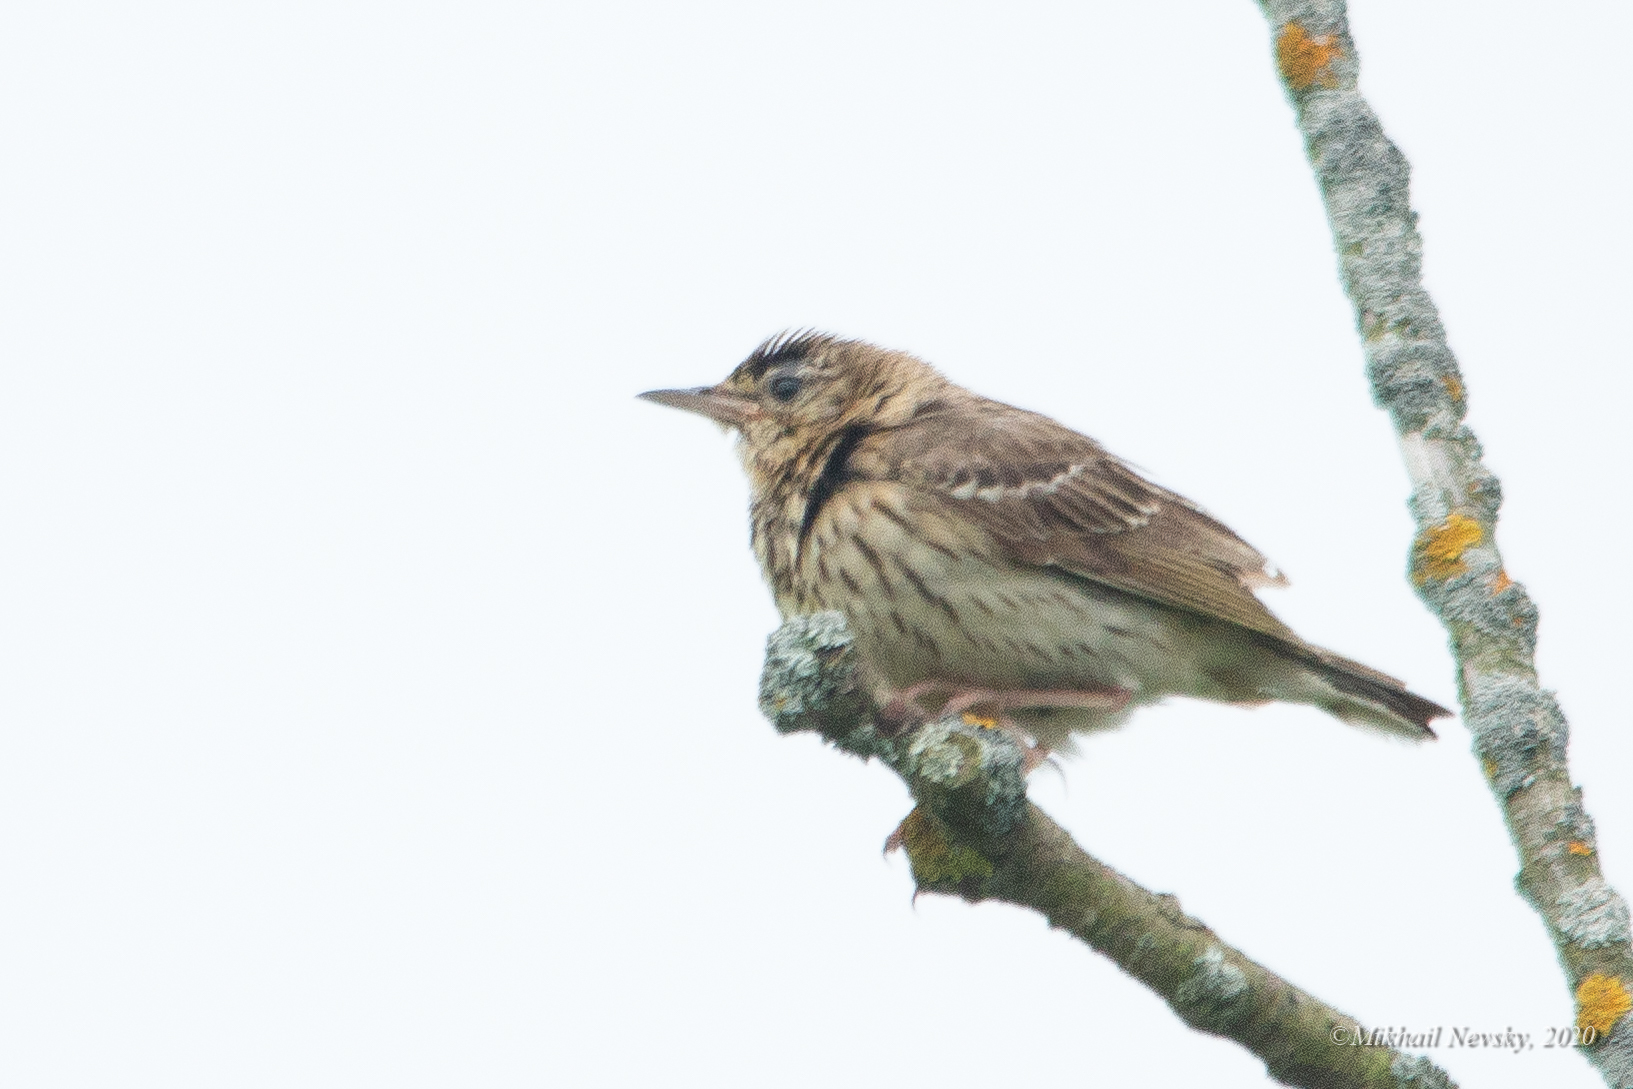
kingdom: Animalia
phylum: Chordata
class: Aves
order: Passeriformes
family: Motacillidae
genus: Anthus
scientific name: Anthus trivialis
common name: Tree pipit
